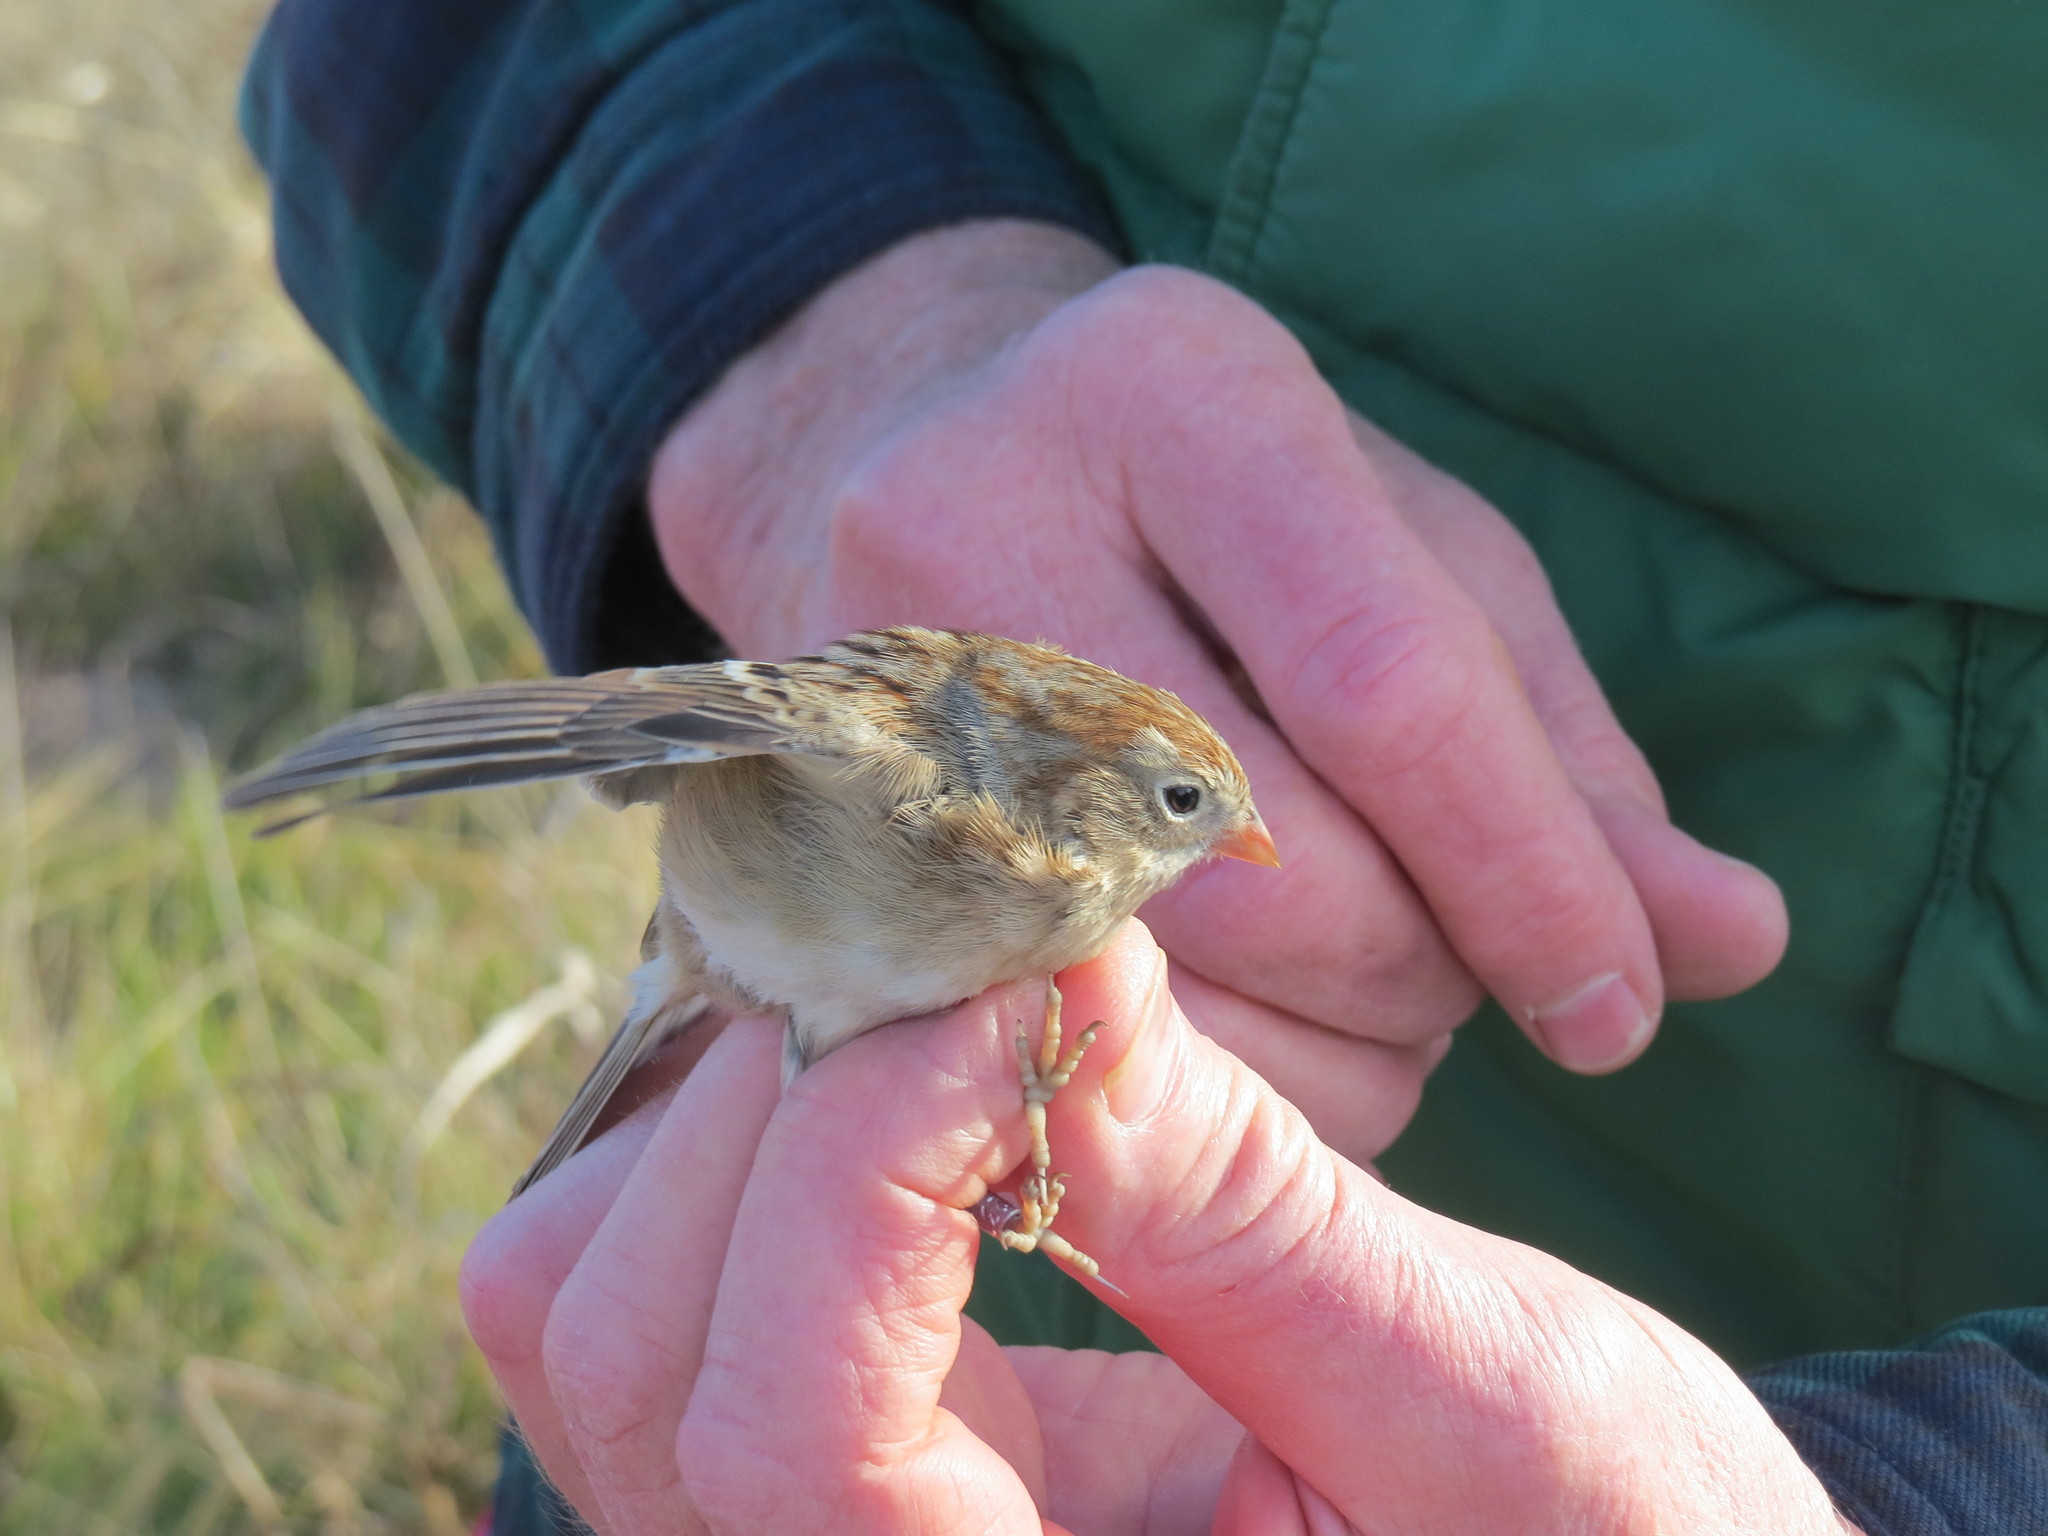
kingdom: Animalia
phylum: Chordata
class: Aves
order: Passeriformes
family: Passerellidae
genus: Spizella
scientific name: Spizella pusilla
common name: Field sparrow
